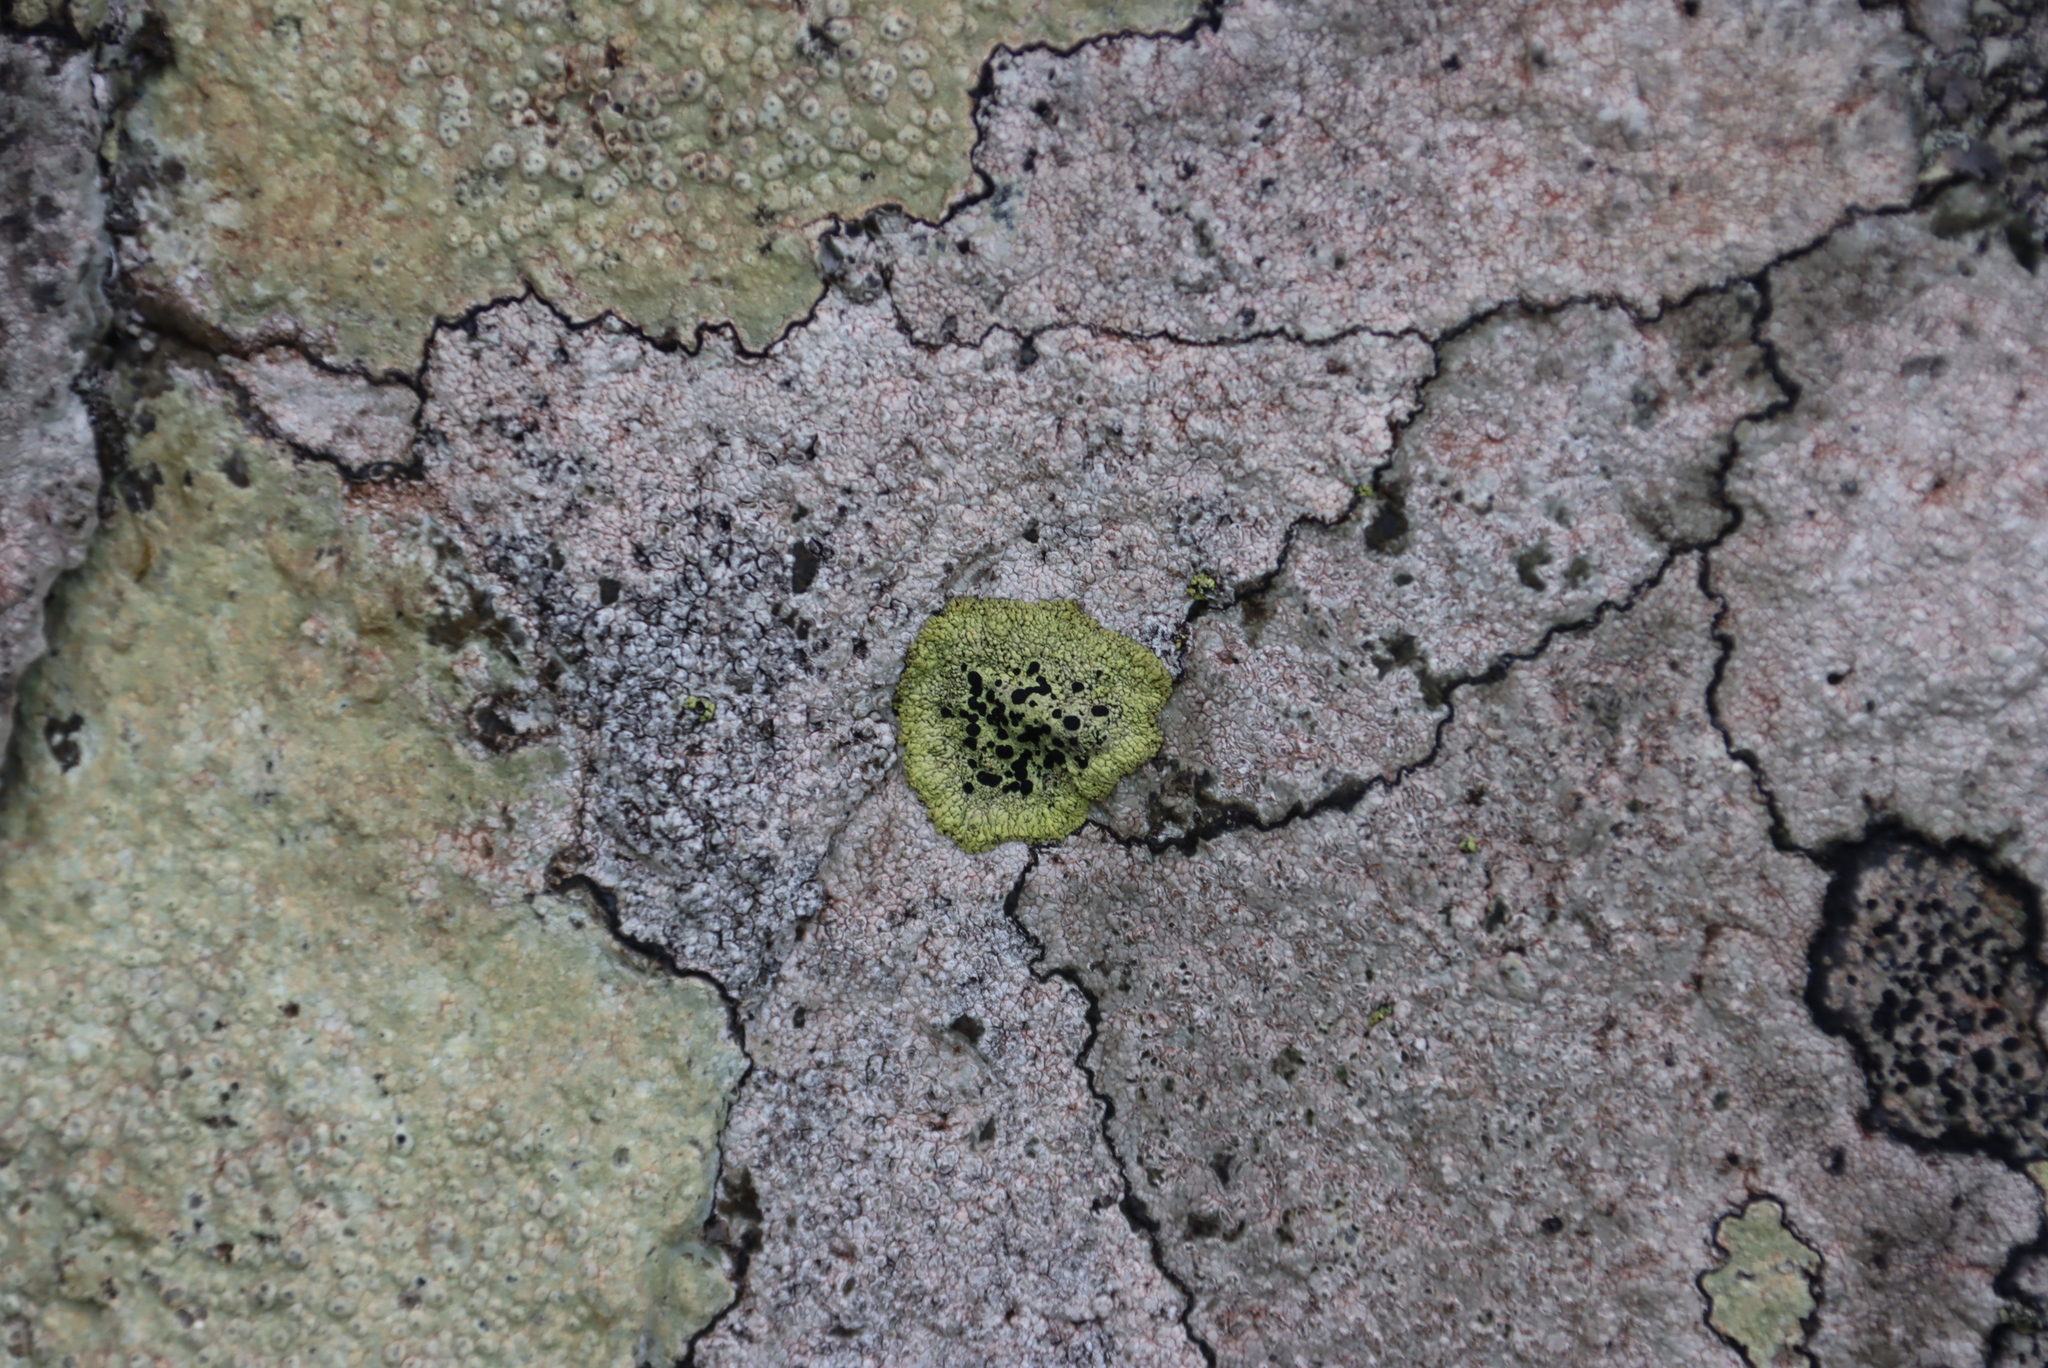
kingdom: Fungi
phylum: Ascomycota
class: Lecanoromycetes
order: Caliciales
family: Caliciaceae
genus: Diploicia
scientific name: Diploicia africana
